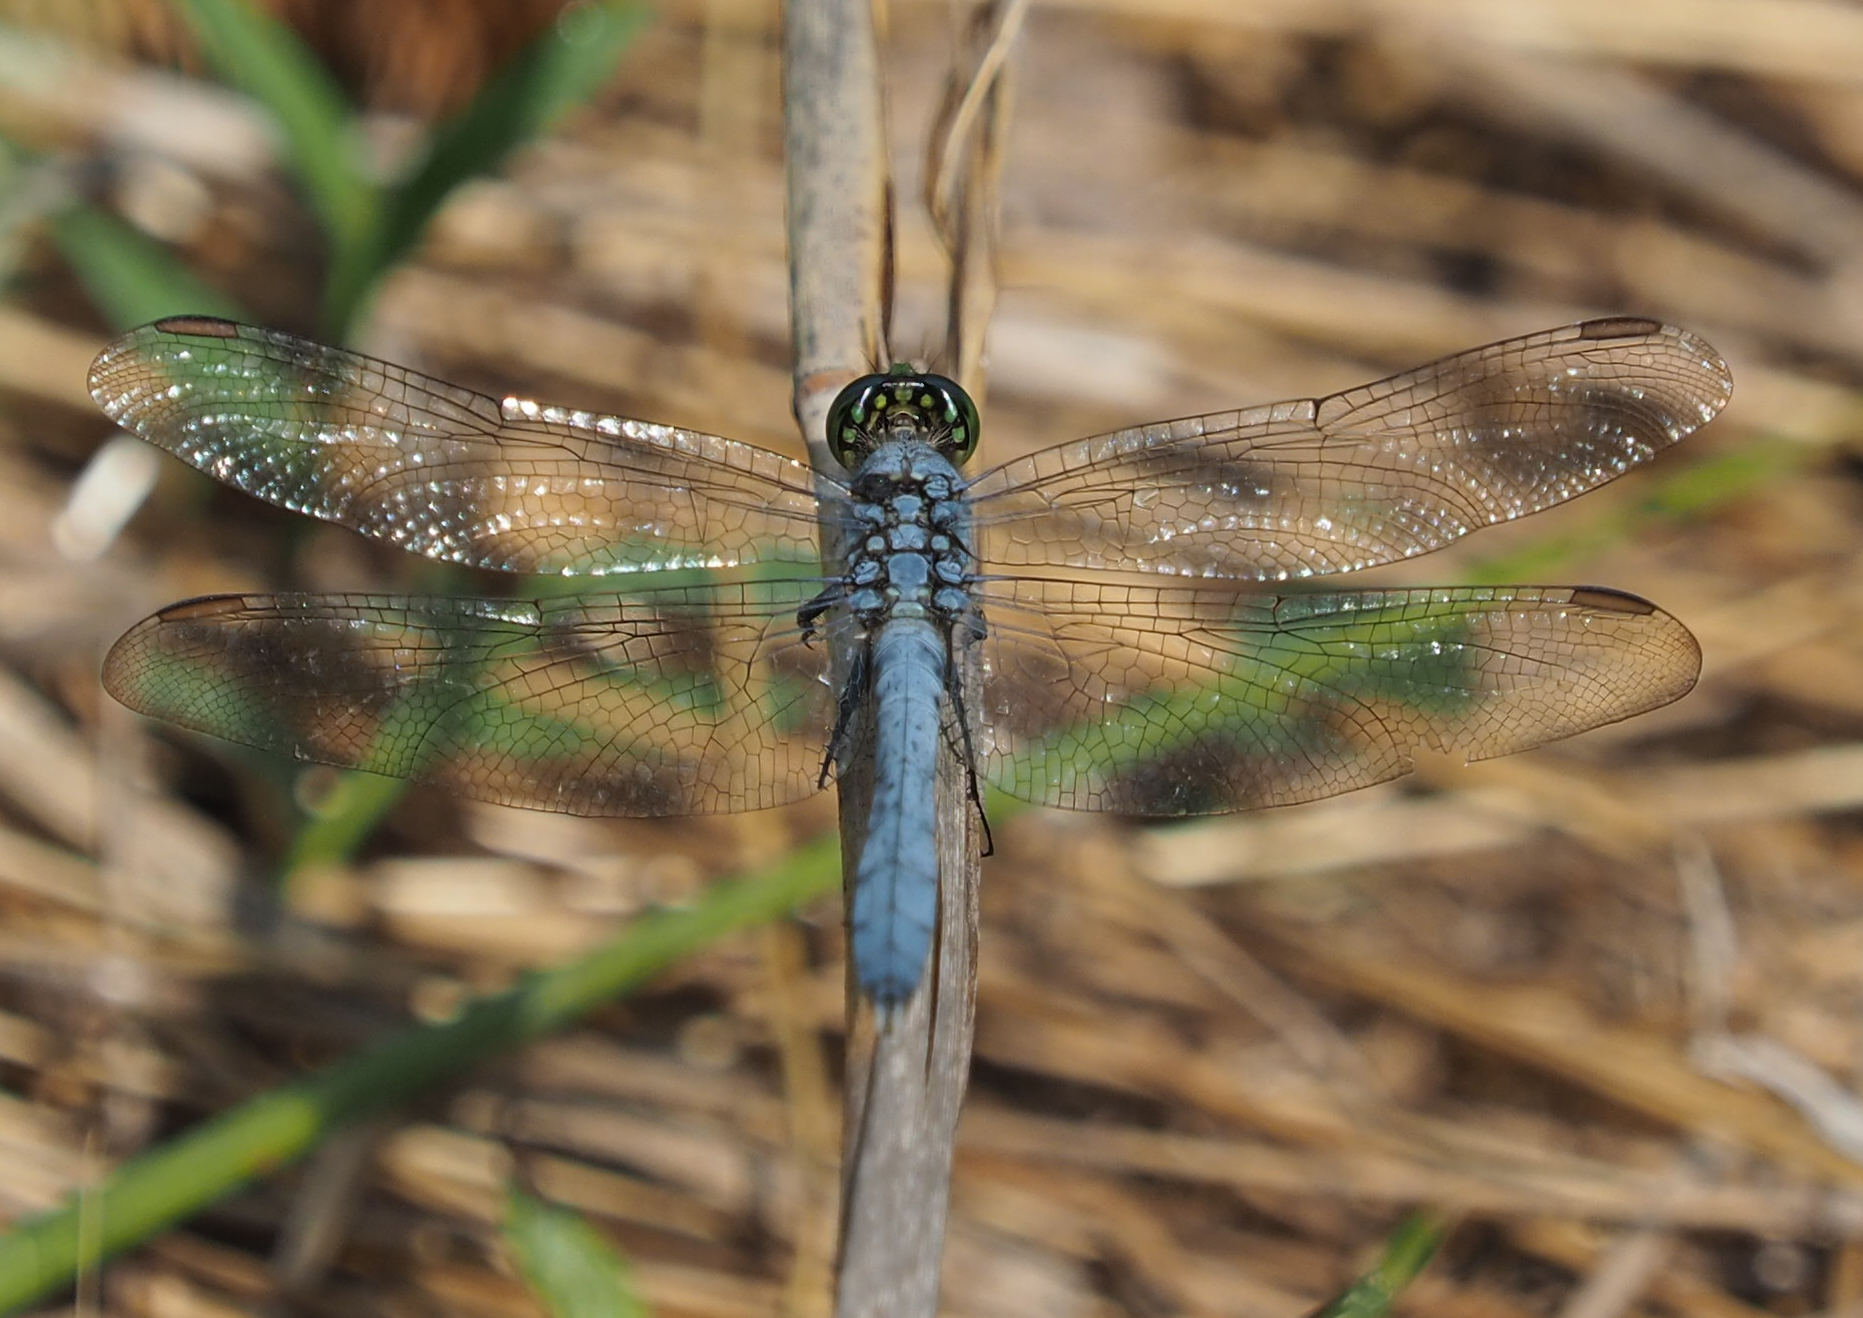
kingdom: Animalia
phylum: Arthropoda
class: Insecta
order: Odonata
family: Libellulidae
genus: Erythemis
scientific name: Erythemis simplicicollis
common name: Eastern pondhawk
